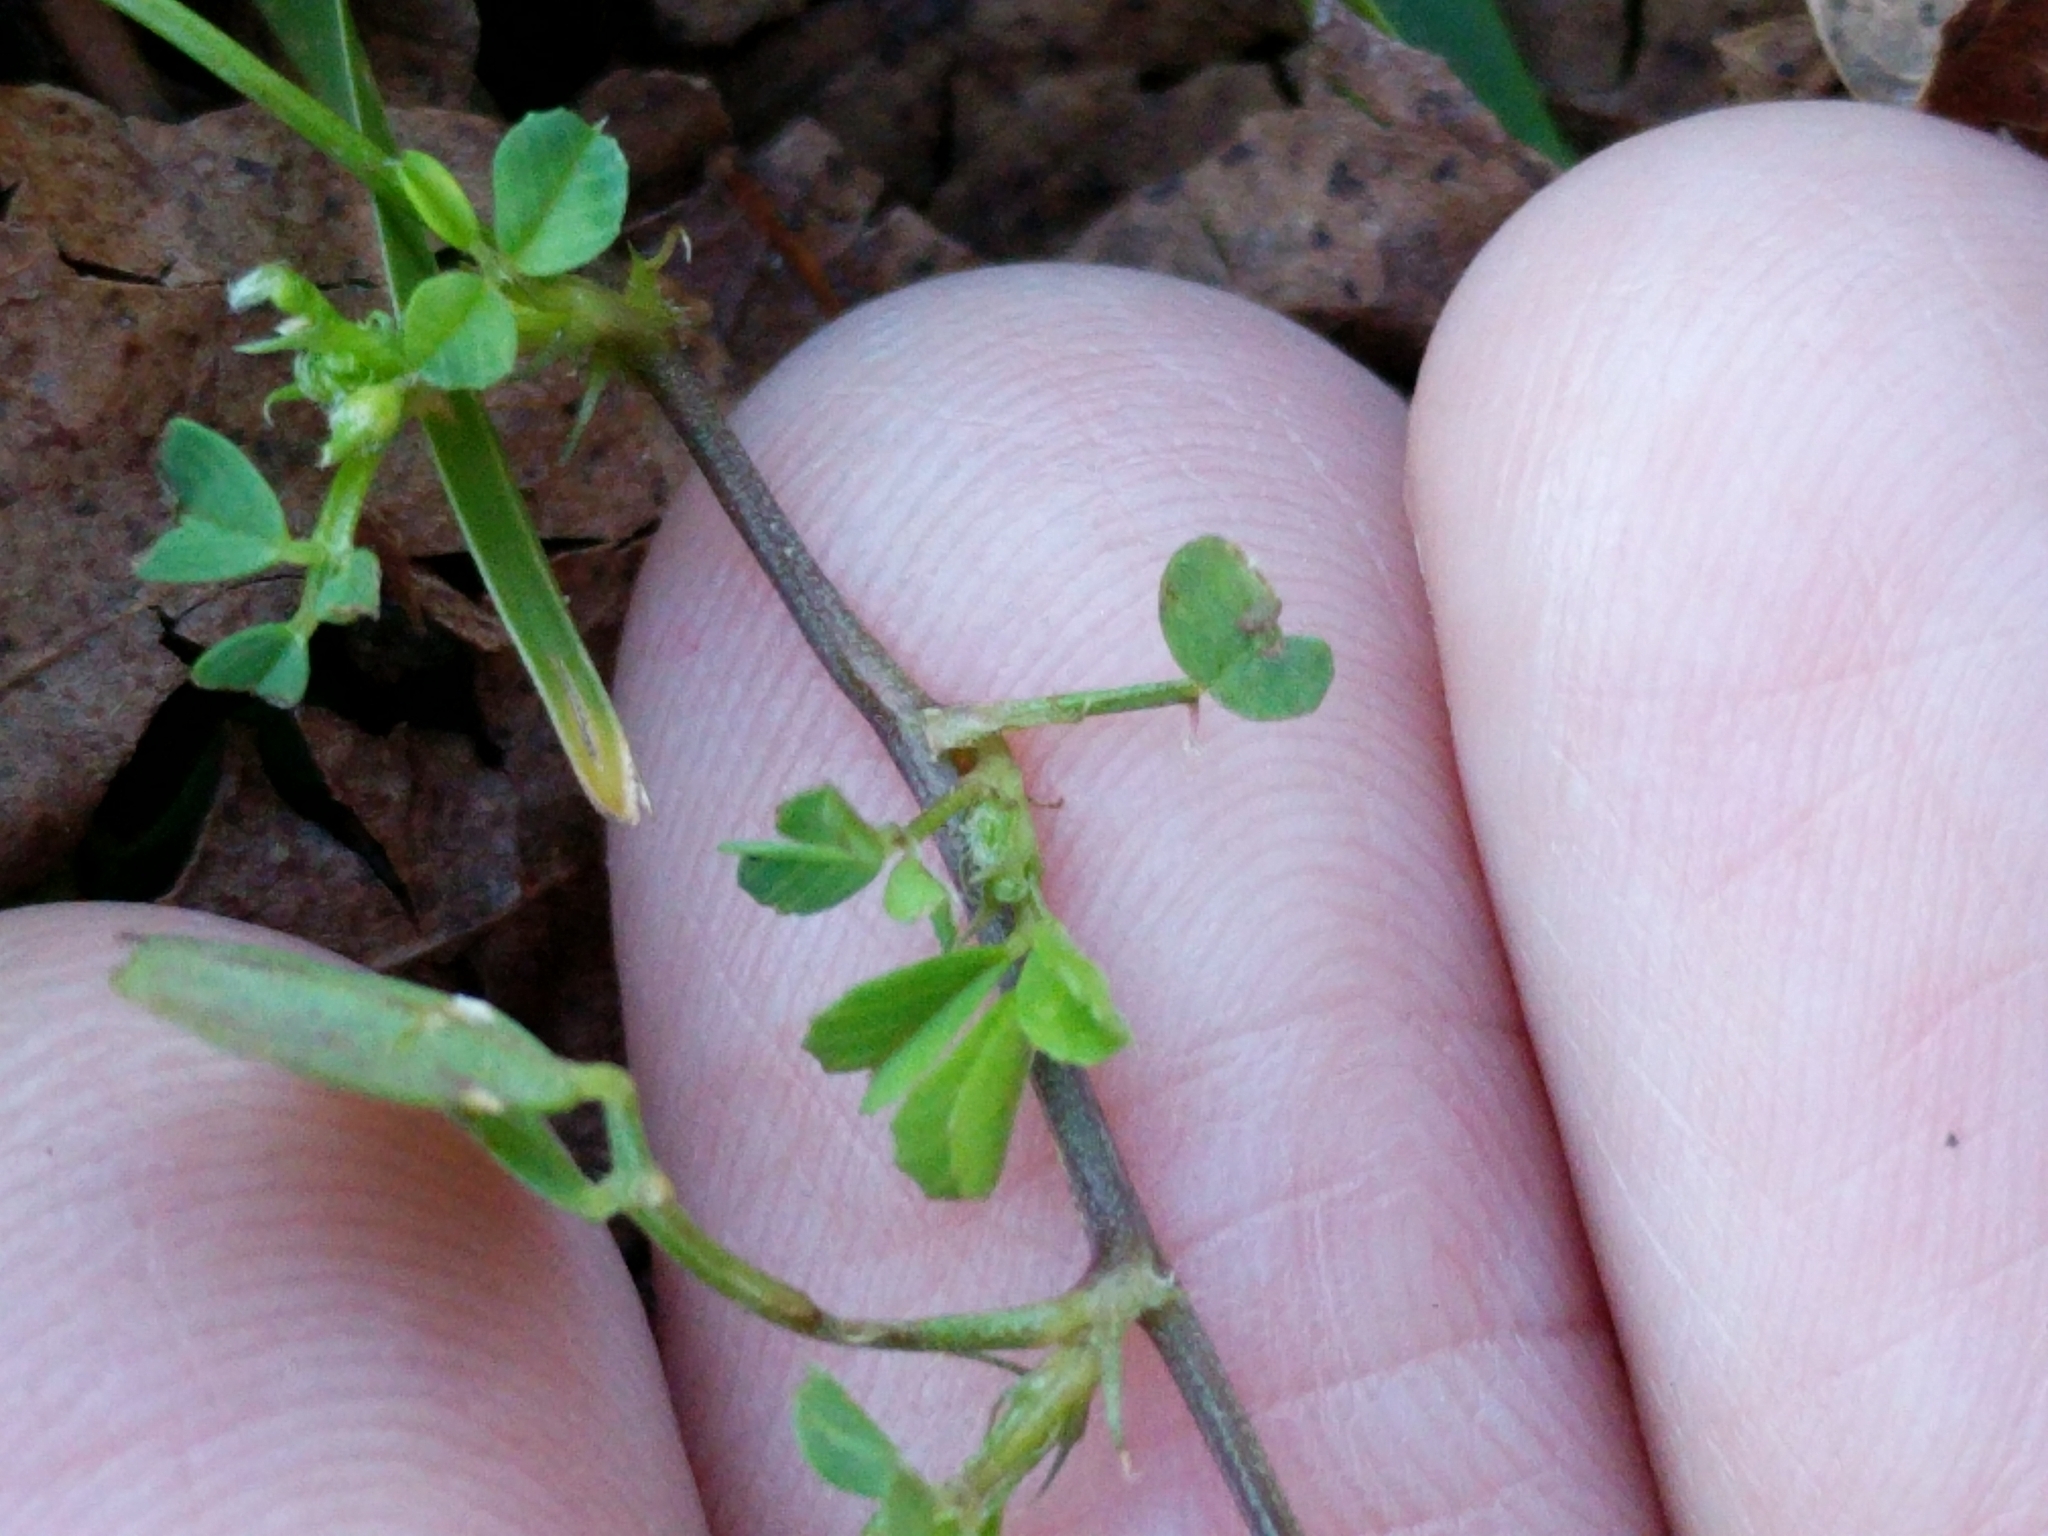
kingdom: Plantae
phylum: Tracheophyta
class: Magnoliopsida
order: Fabales
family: Fabaceae
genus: Medicago
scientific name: Medicago arabica
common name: Spotted medick
